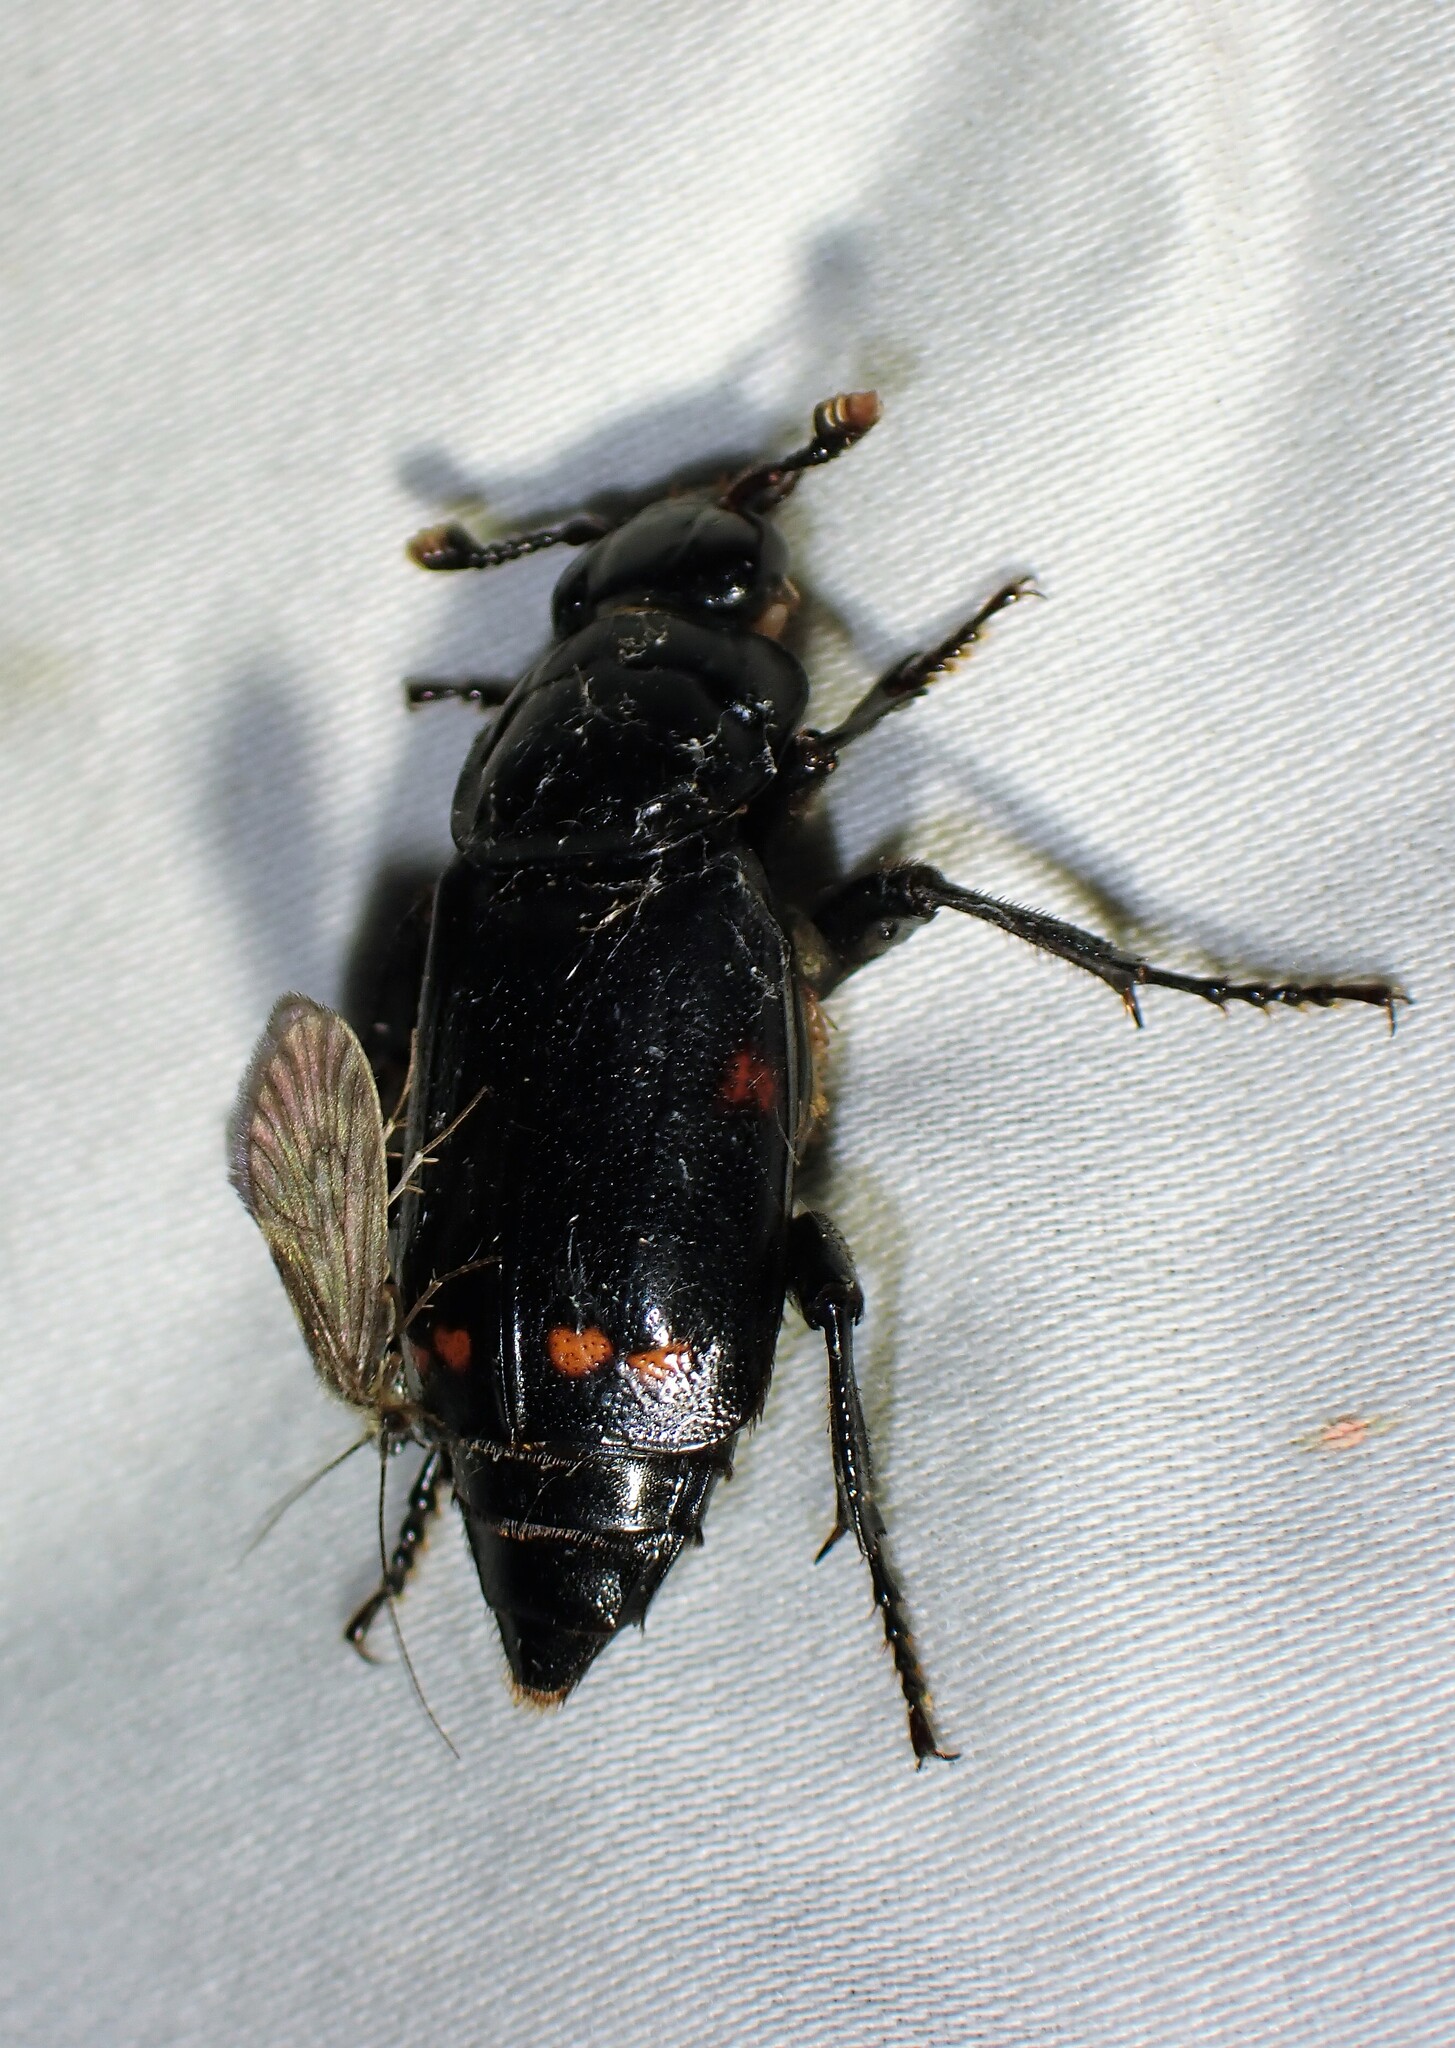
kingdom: Animalia
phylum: Arthropoda
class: Insecta
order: Coleoptera
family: Staphylinidae
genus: Nicrophorus
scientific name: Nicrophorus pustulatus
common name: Pustulated carrion beetle
